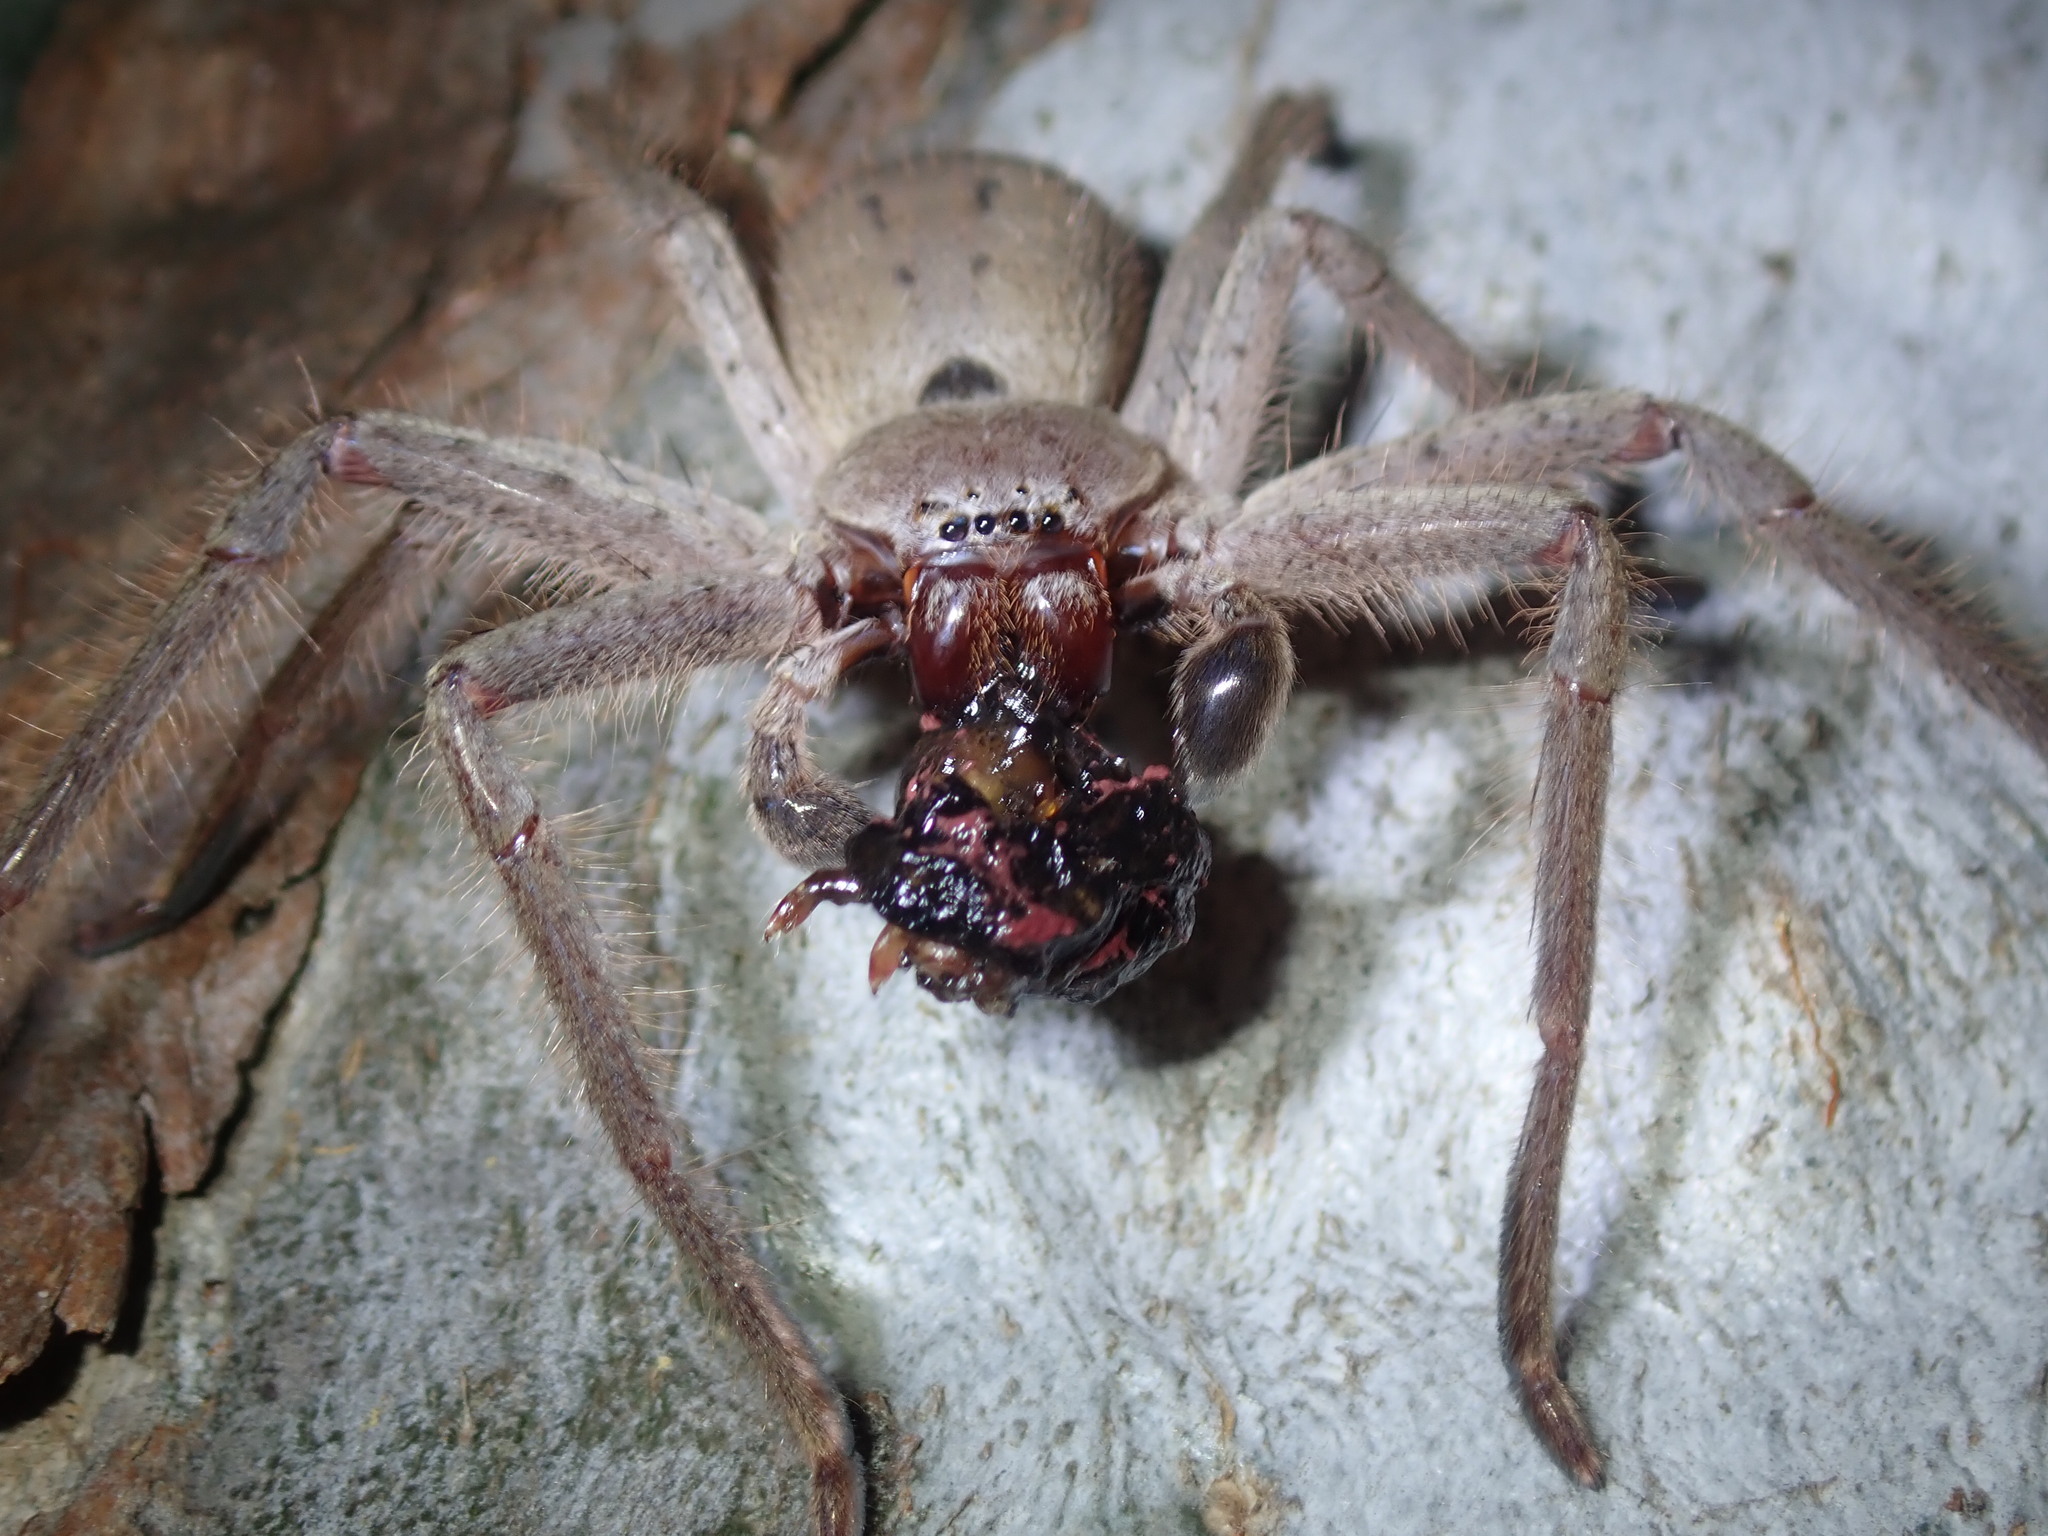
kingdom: Animalia
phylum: Arthropoda
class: Arachnida
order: Araneae
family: Sparassidae
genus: Isopeda
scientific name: Isopeda villosa
